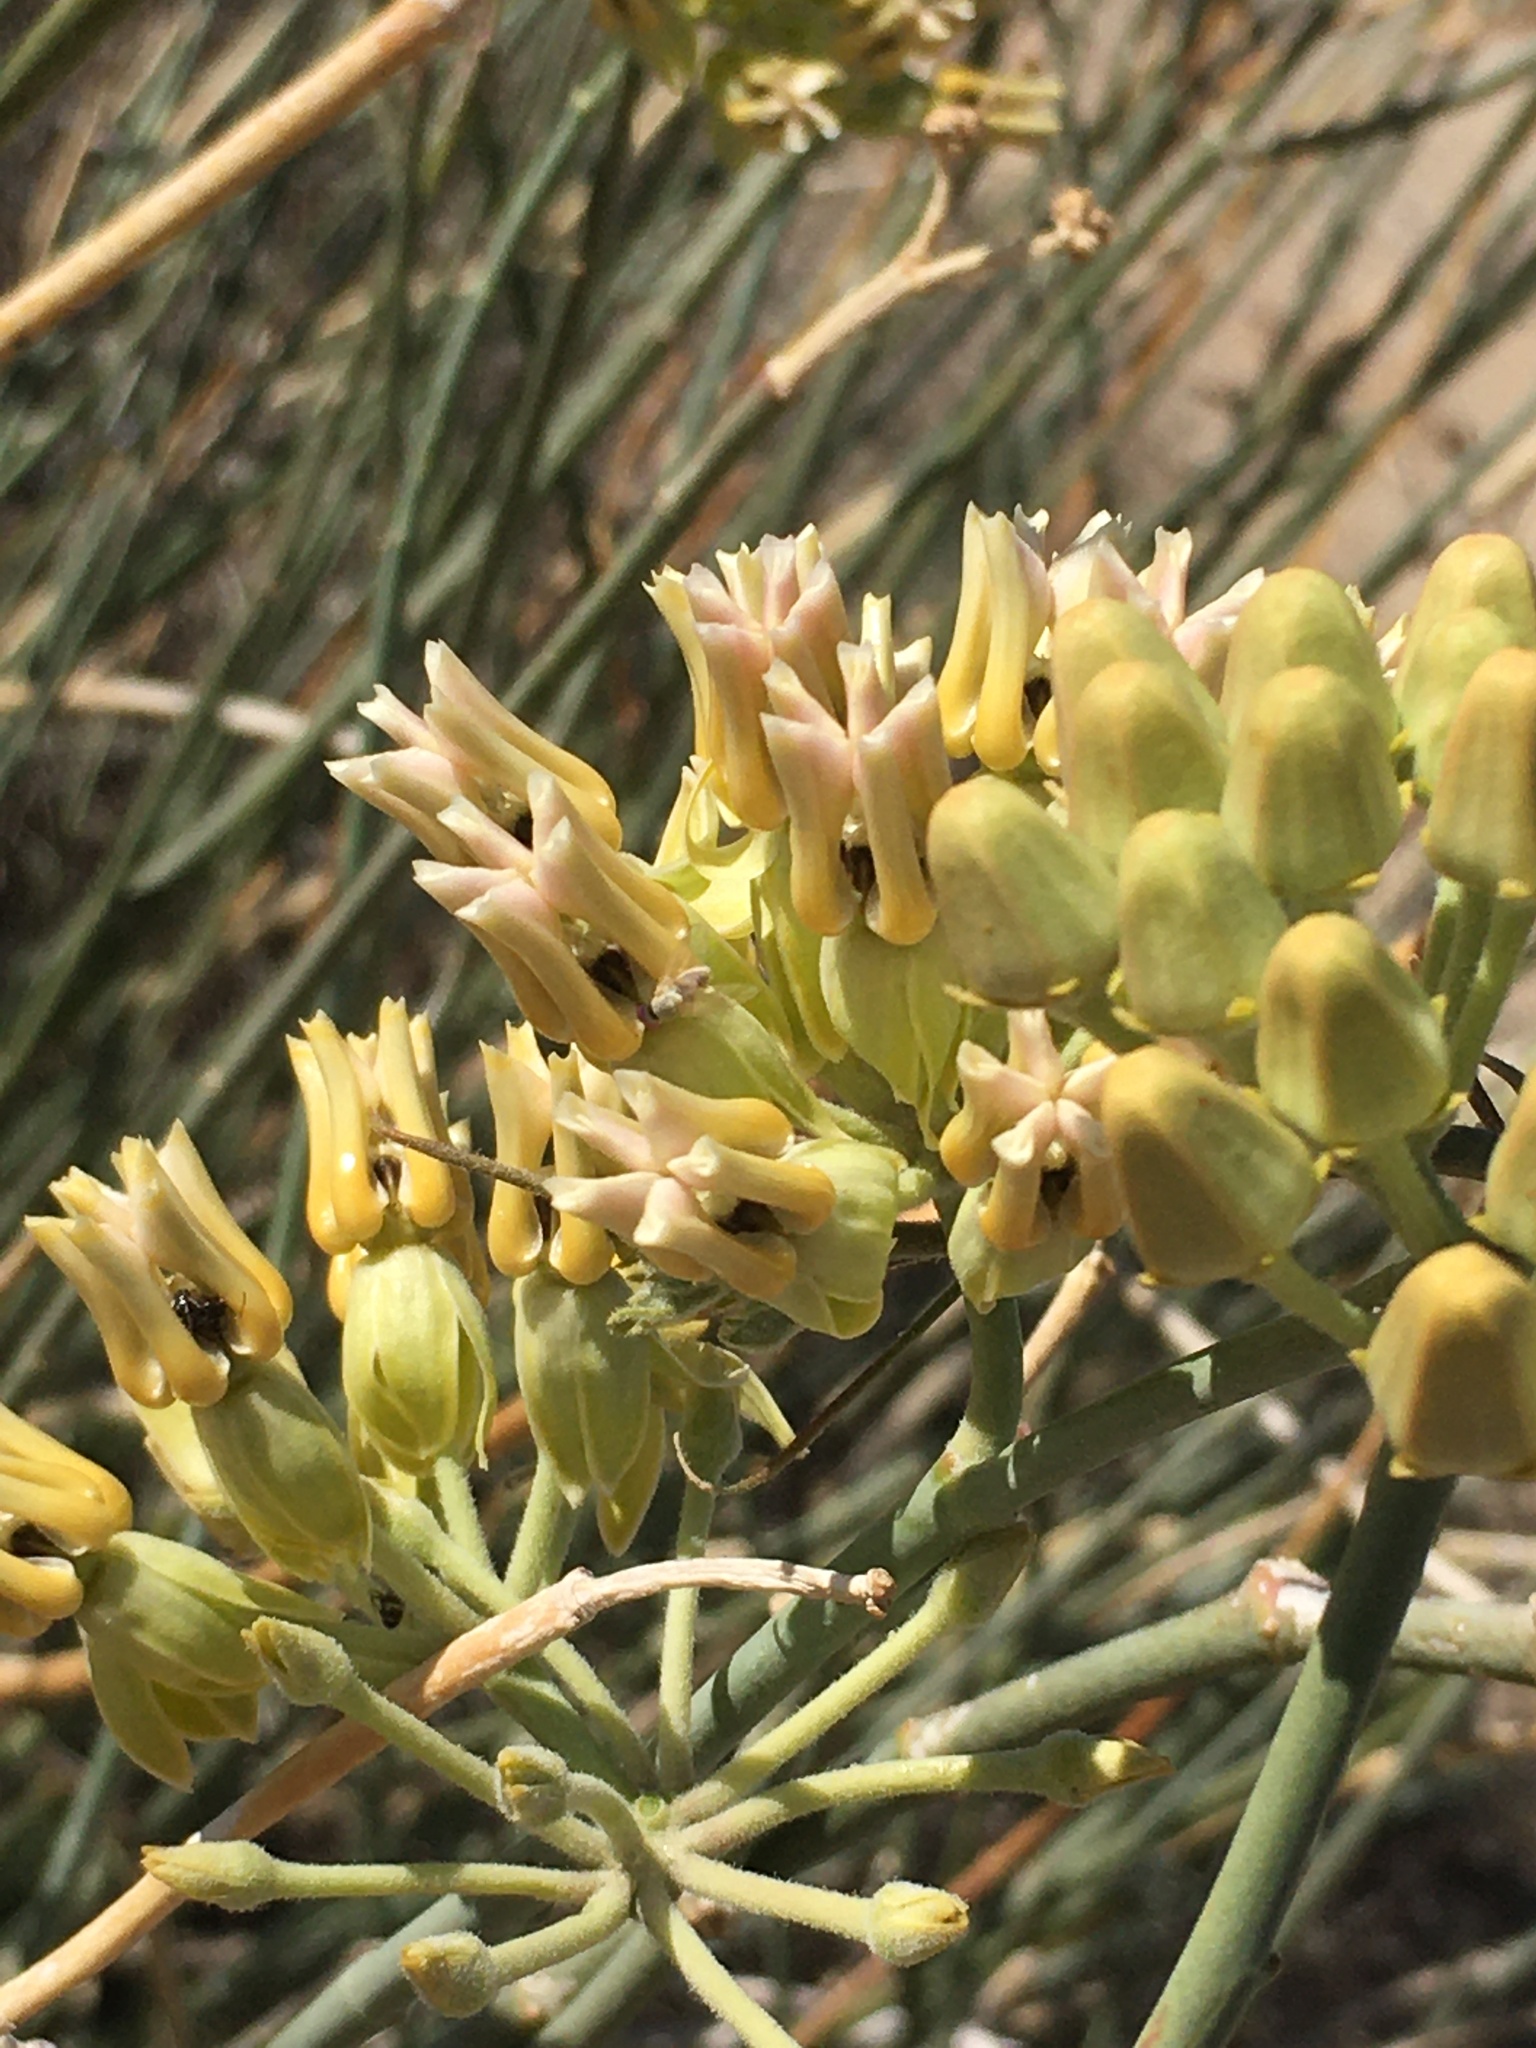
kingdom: Plantae
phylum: Tracheophyta
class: Magnoliopsida
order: Gentianales
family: Apocynaceae
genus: Asclepias
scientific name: Asclepias subulata
